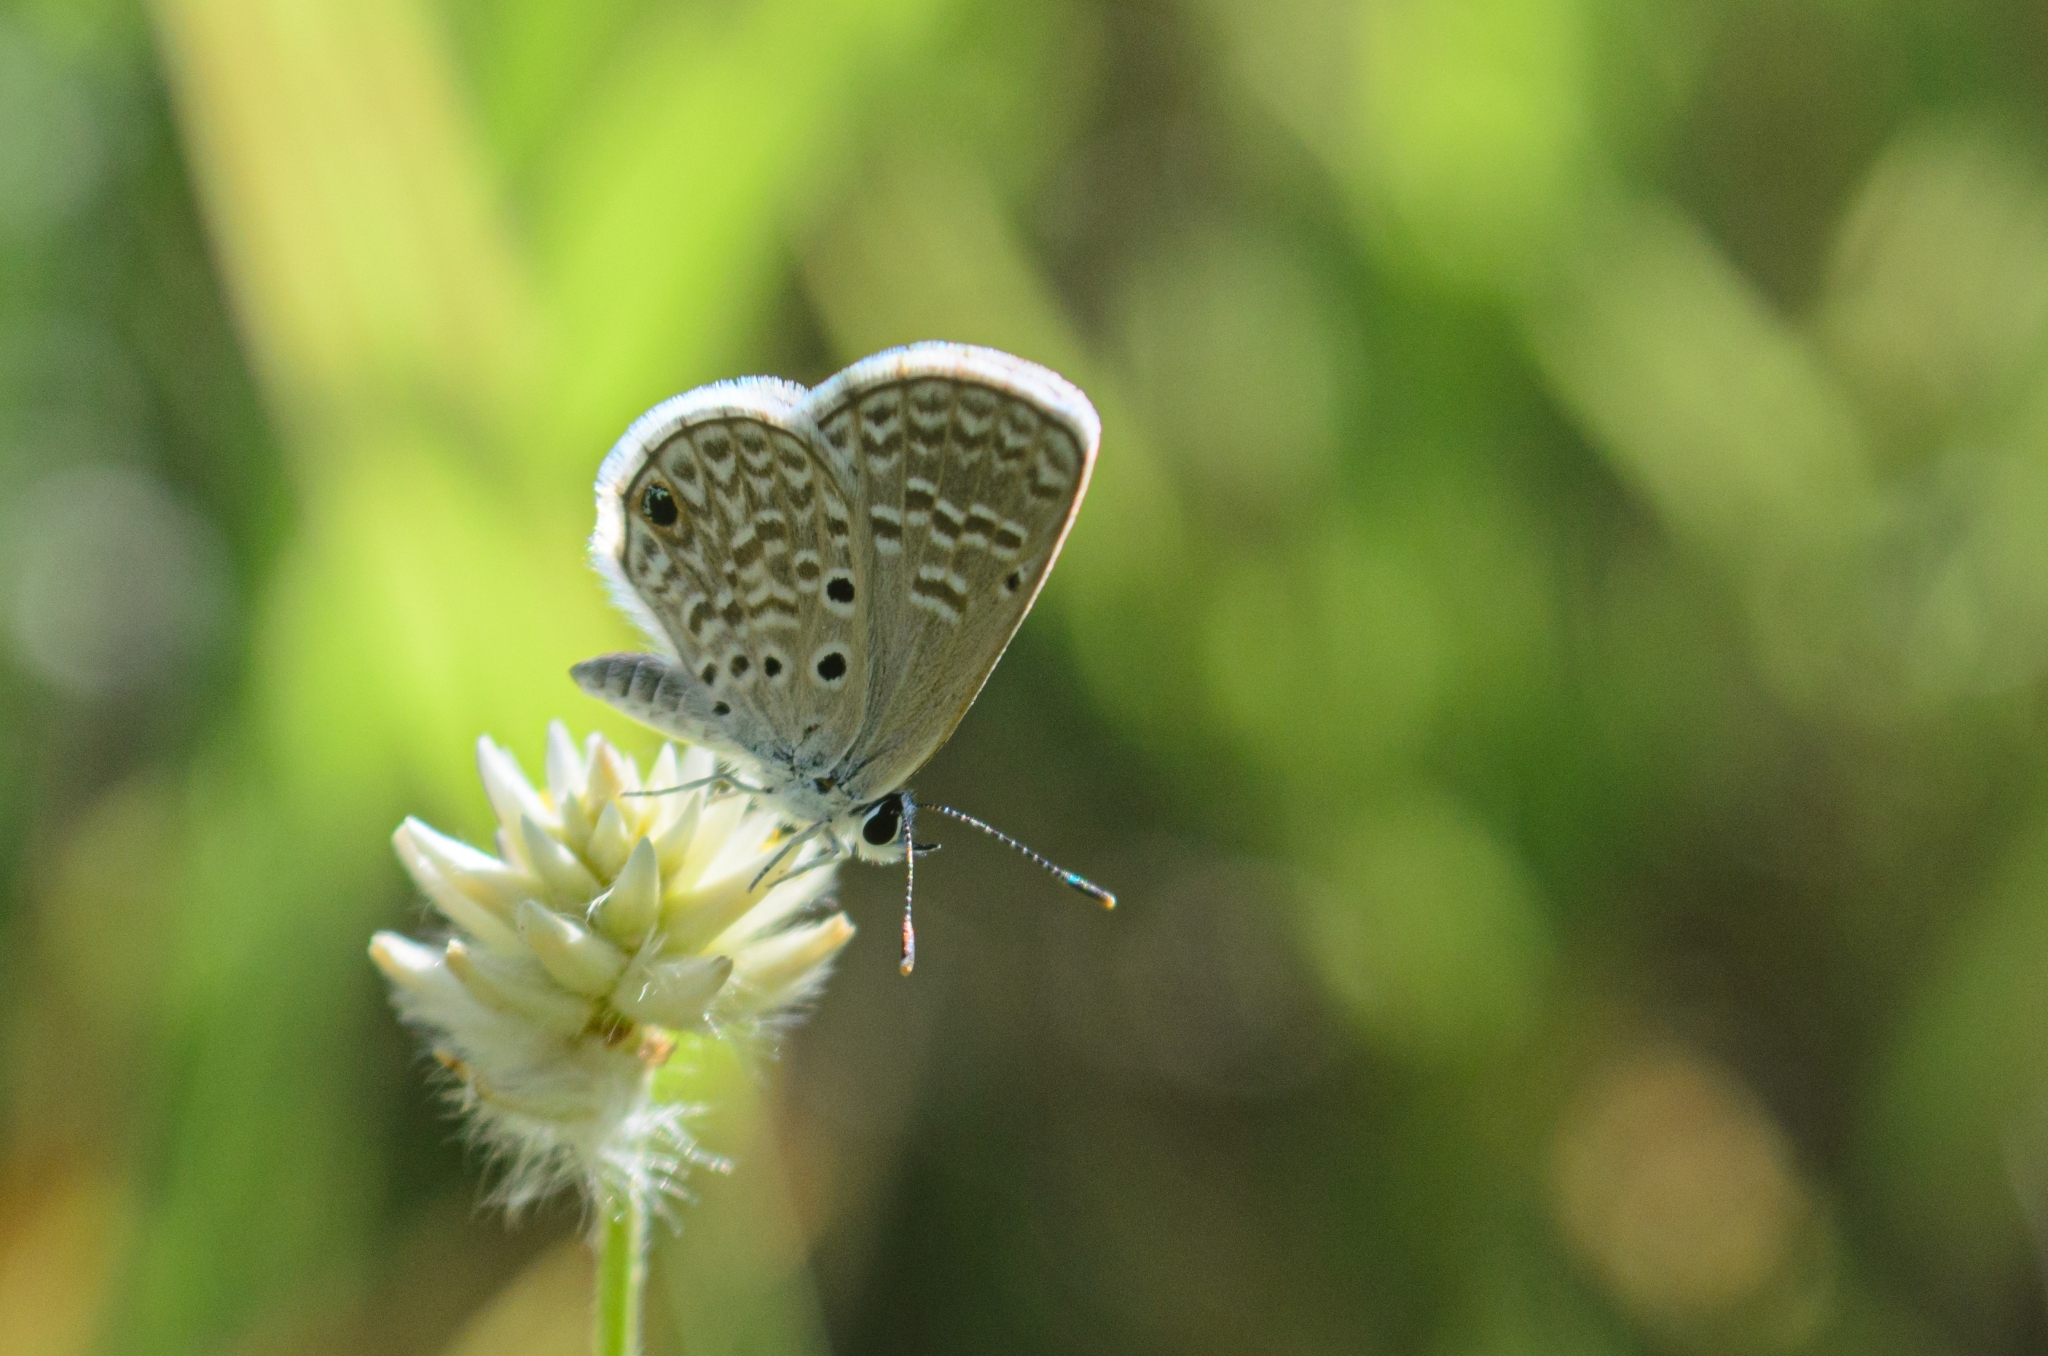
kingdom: Animalia
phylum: Arthropoda
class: Insecta
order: Lepidoptera
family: Lycaenidae
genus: Hemiargus
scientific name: Hemiargus hanno
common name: Common blue
